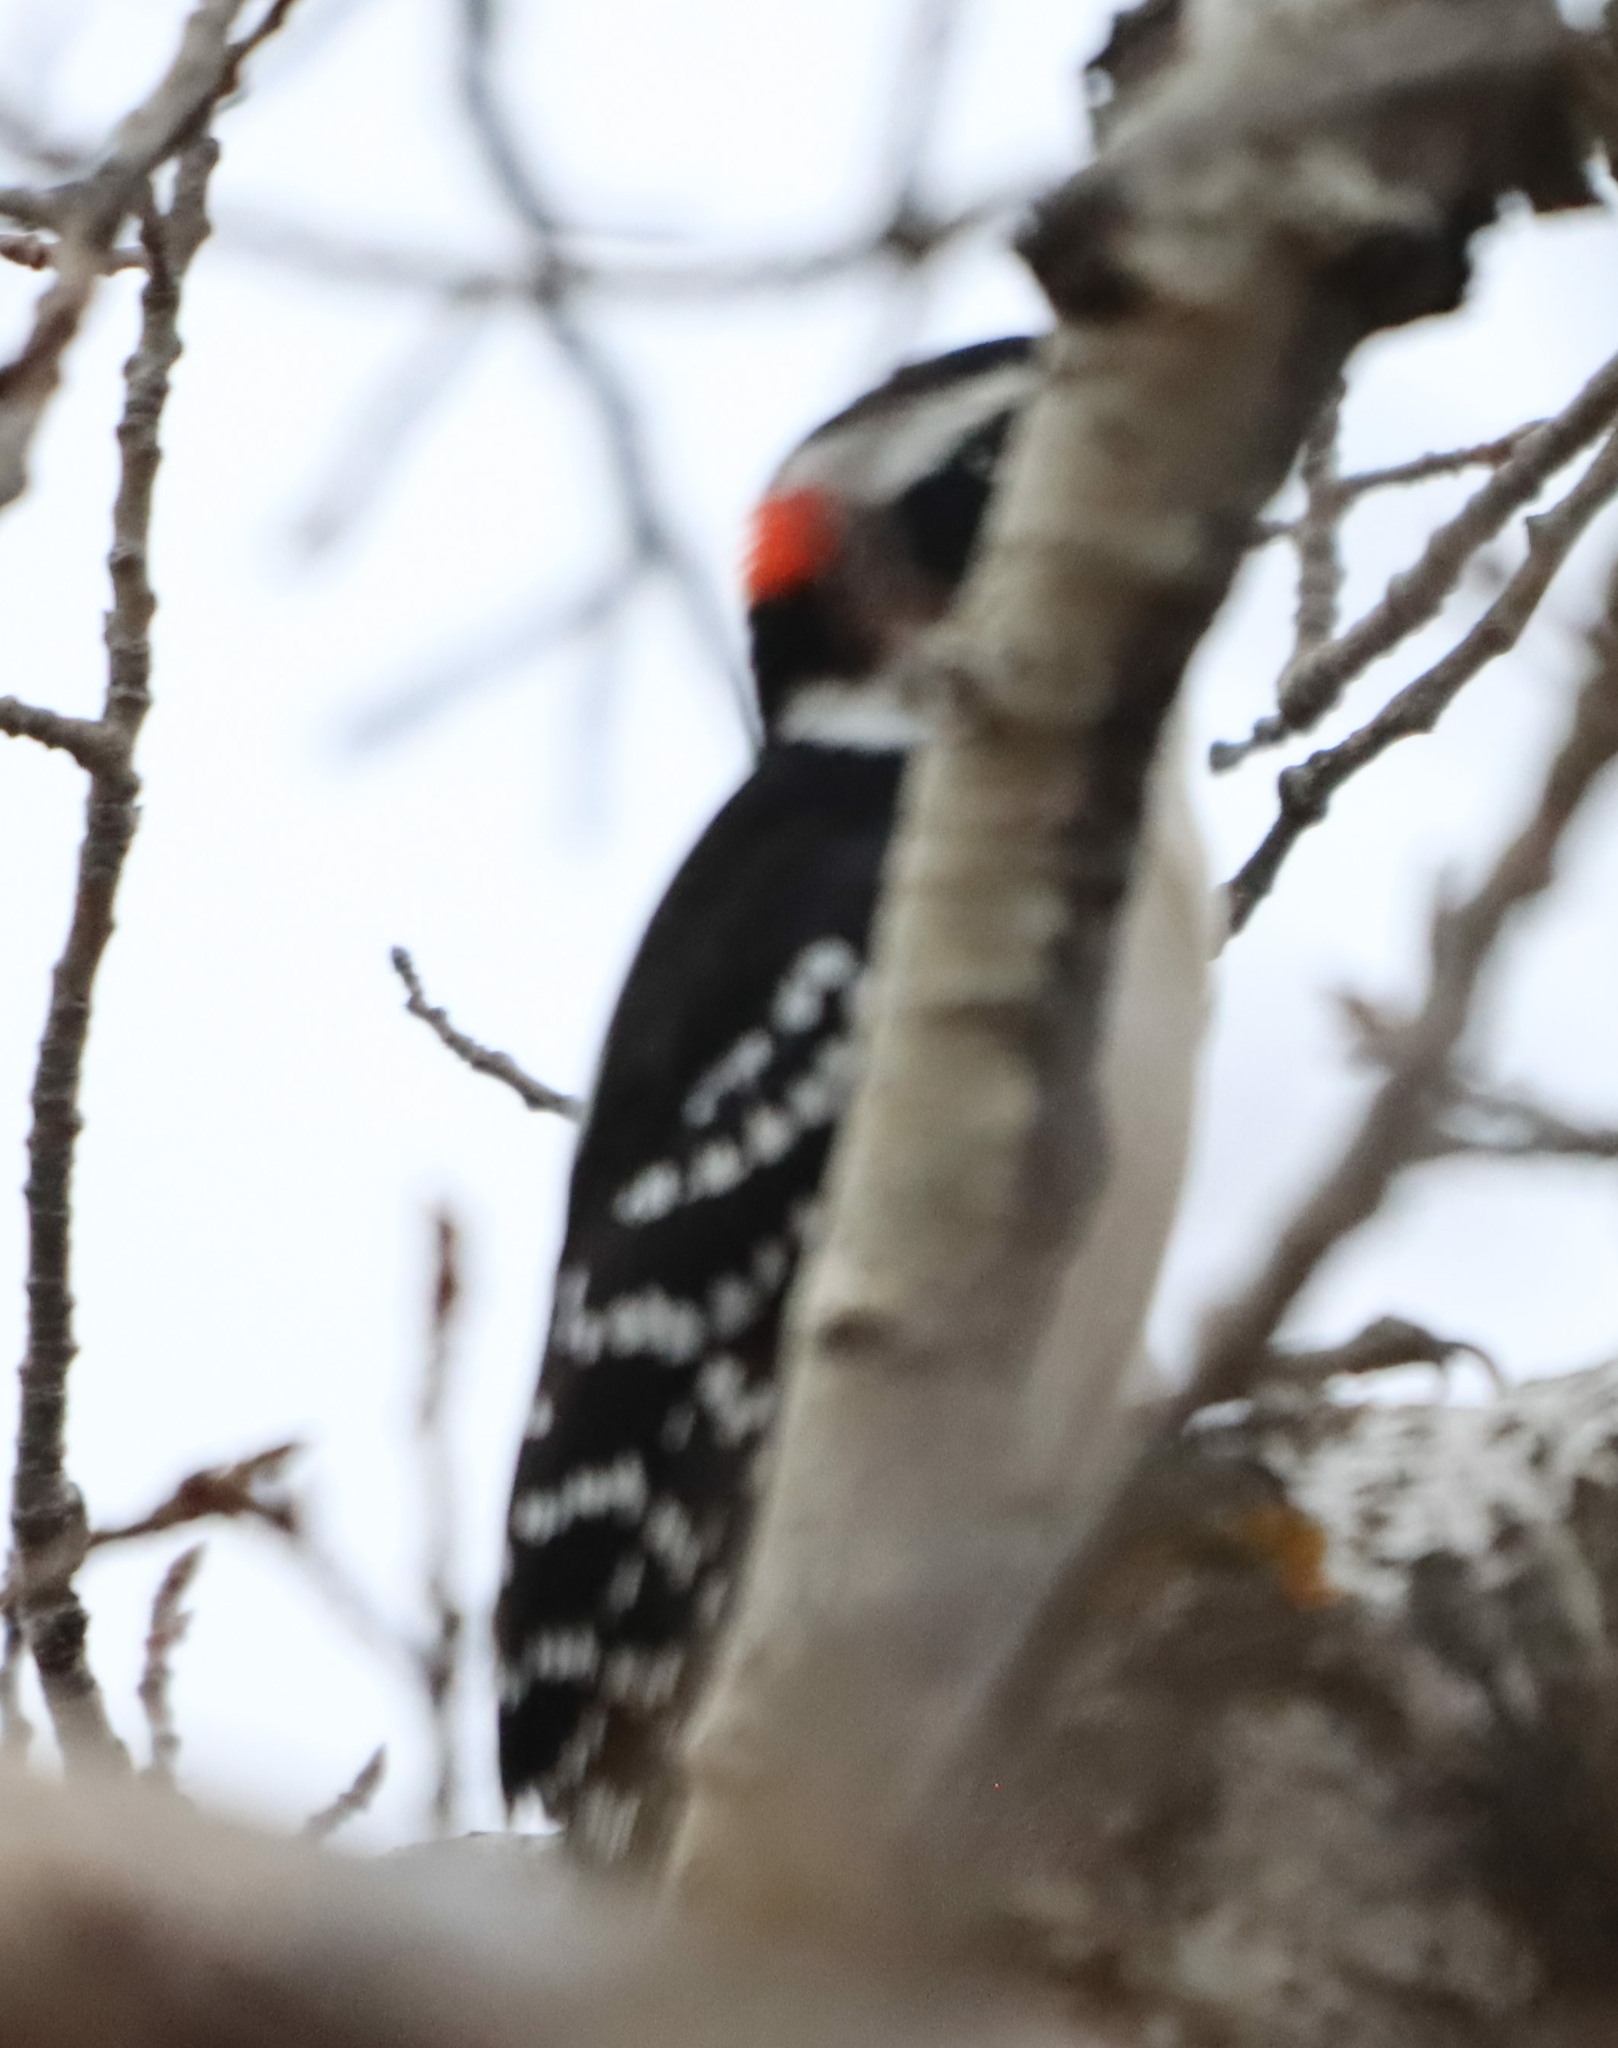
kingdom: Animalia
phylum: Chordata
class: Aves
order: Piciformes
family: Picidae
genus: Leuconotopicus
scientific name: Leuconotopicus villosus
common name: Hairy woodpecker
